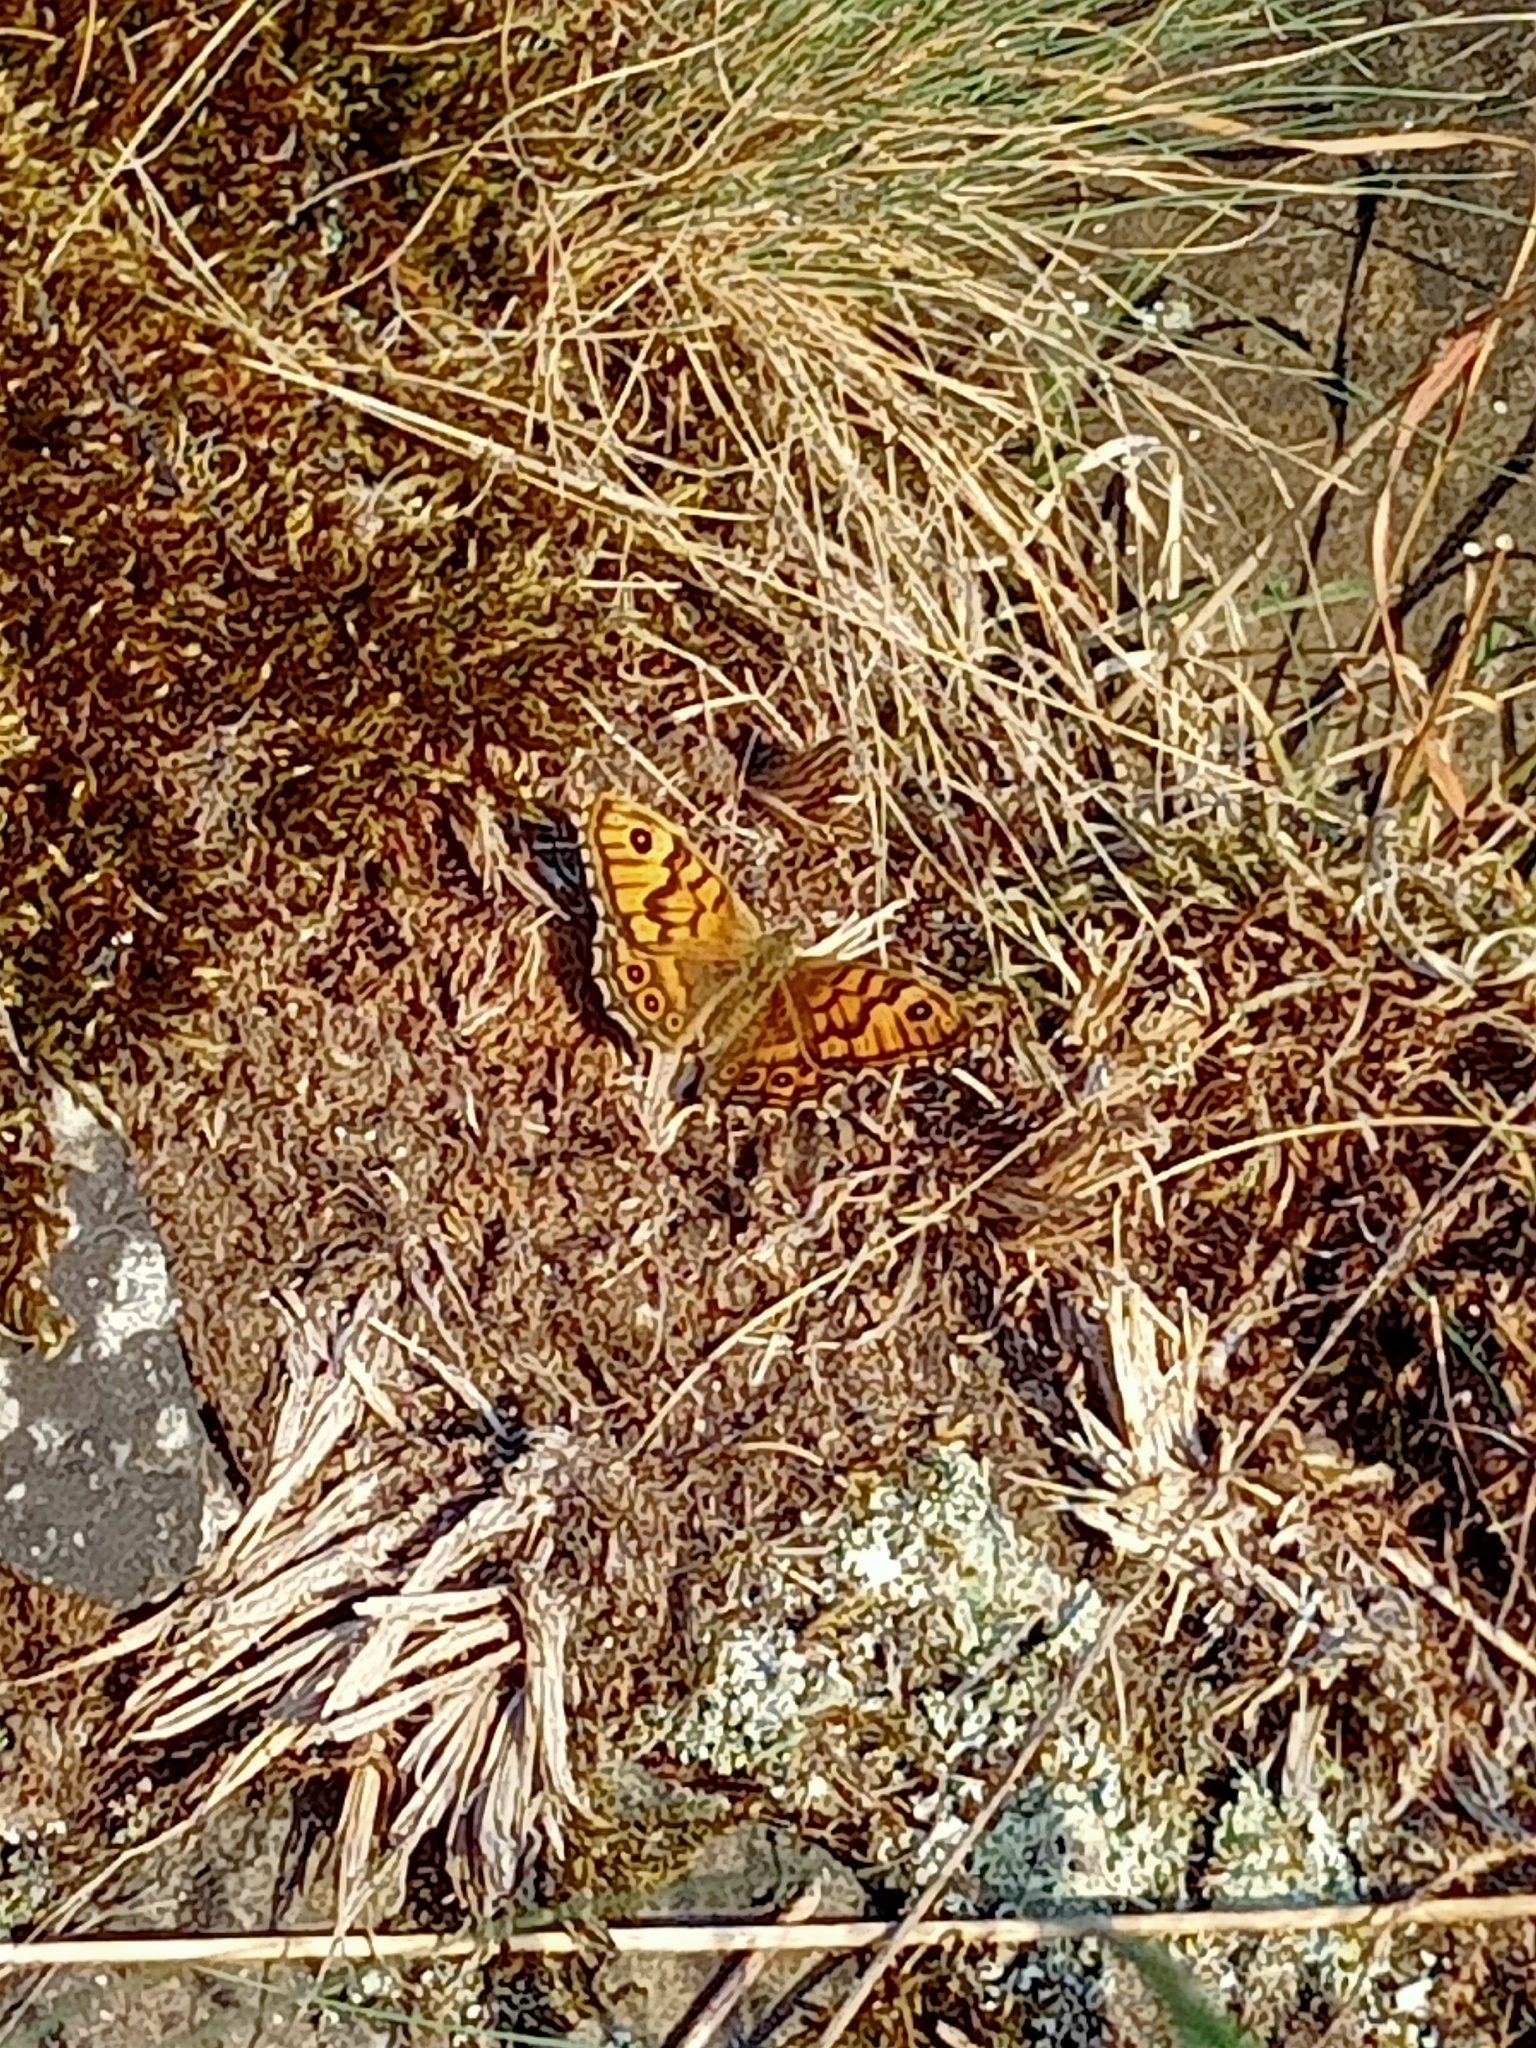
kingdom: Animalia
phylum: Arthropoda
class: Insecta
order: Lepidoptera
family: Nymphalidae
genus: Pararge
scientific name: Pararge Lasiommata megera
